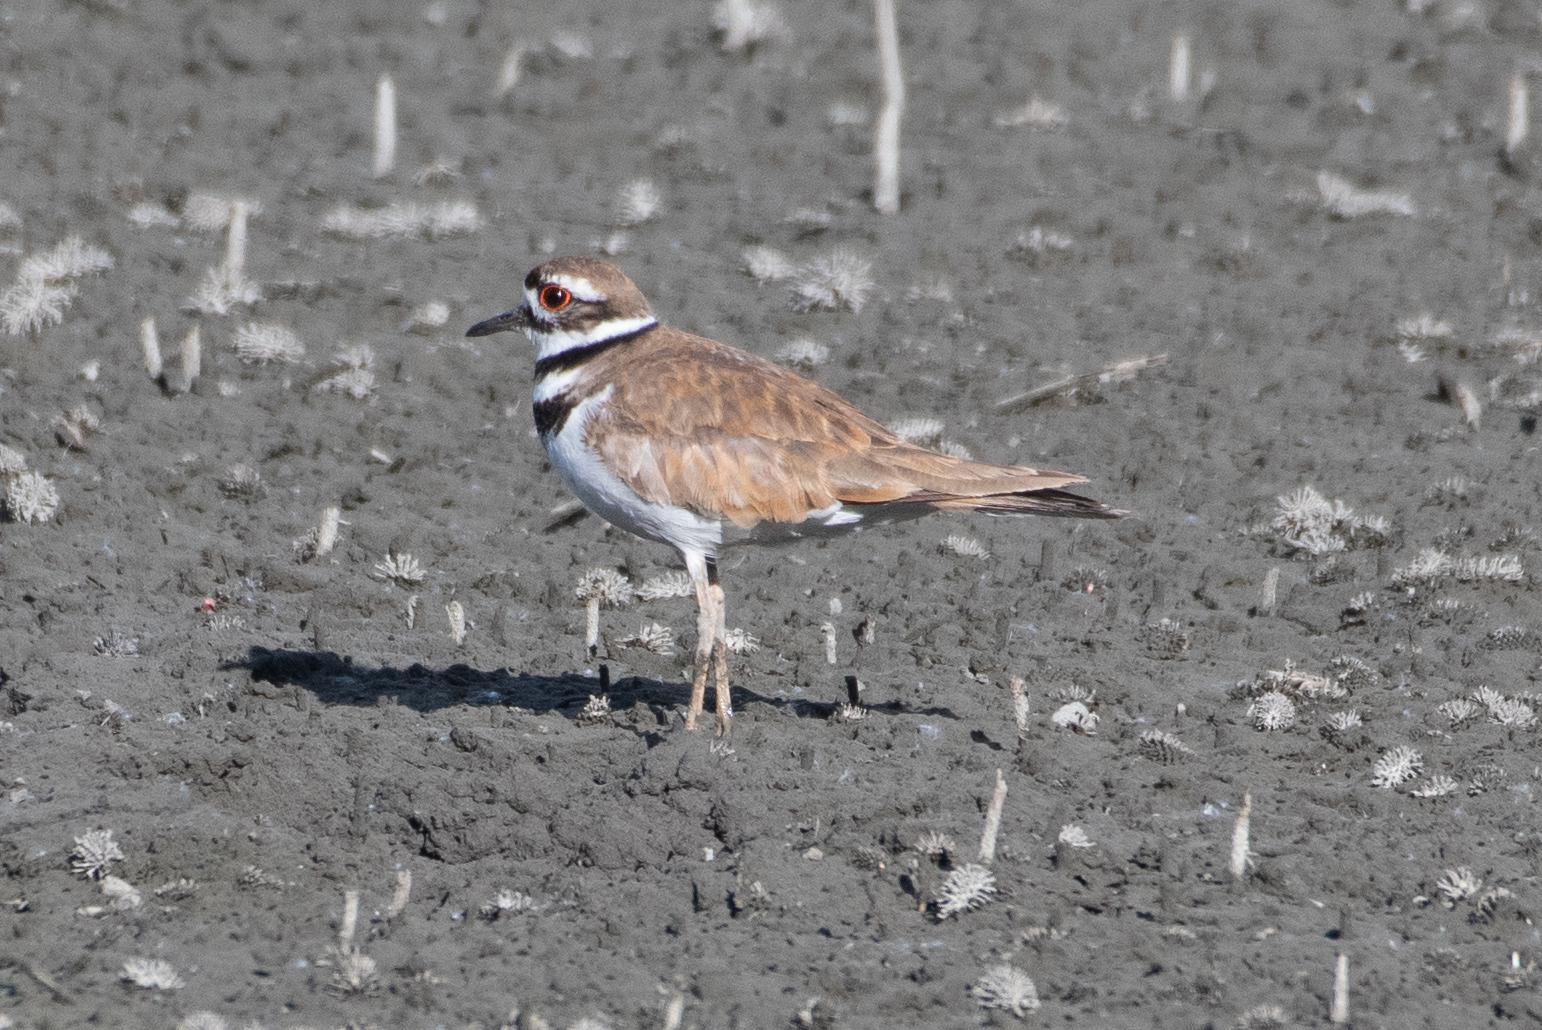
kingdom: Animalia
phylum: Chordata
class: Aves
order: Charadriiformes
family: Charadriidae
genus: Charadrius
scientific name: Charadrius vociferus
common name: Killdeer
